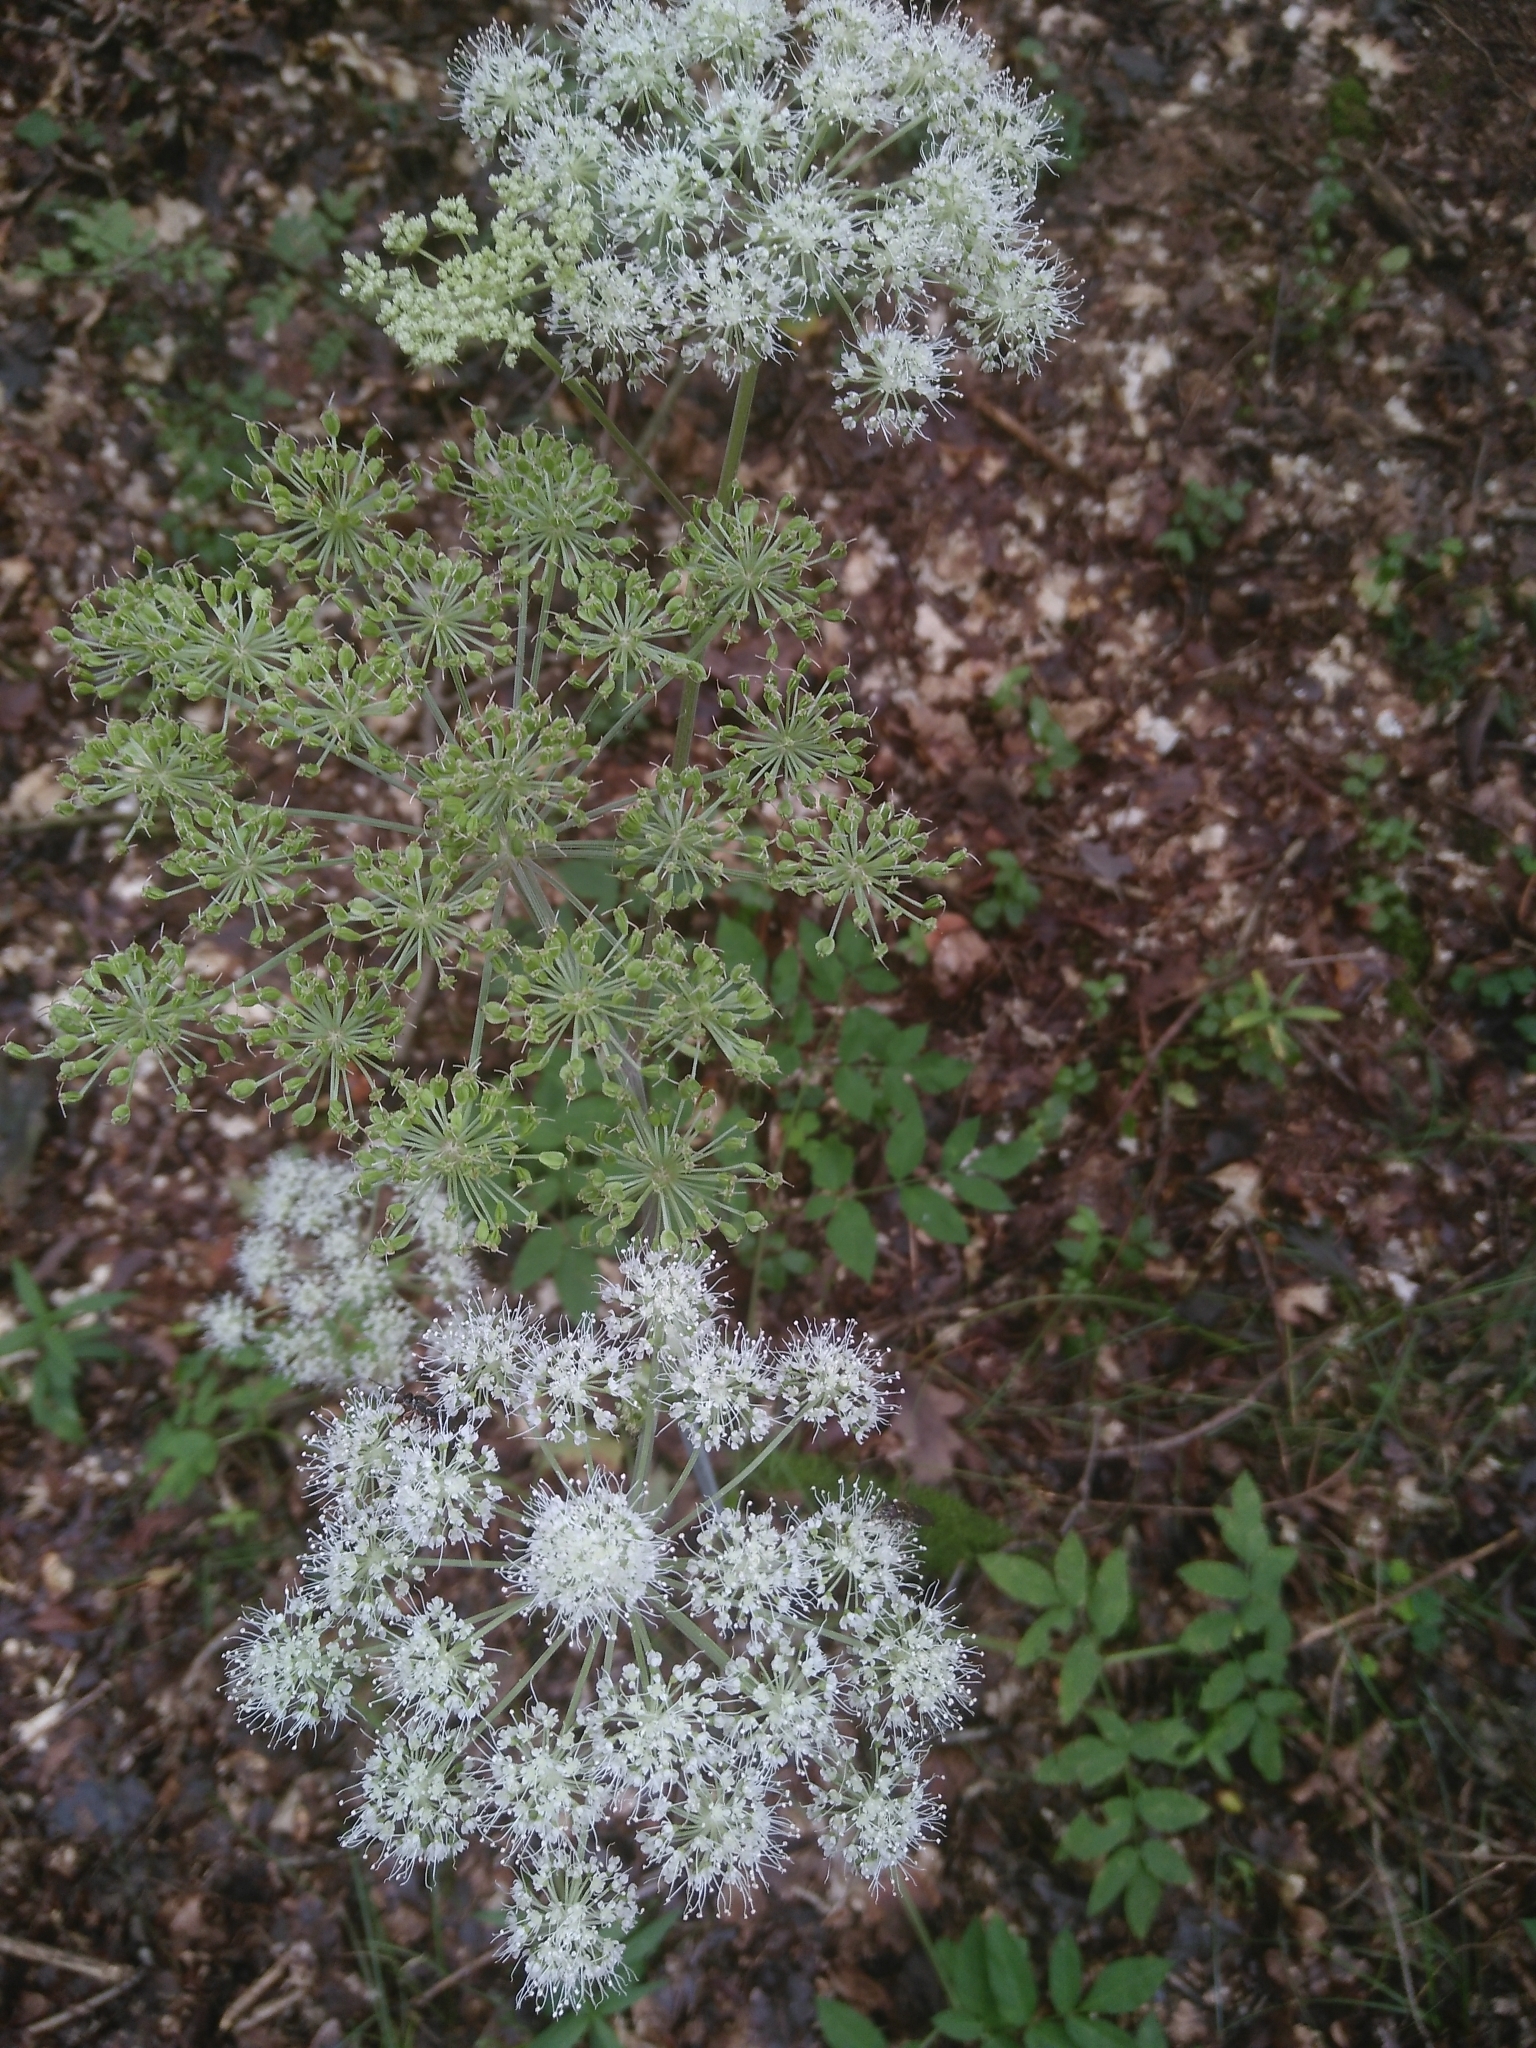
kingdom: Plantae
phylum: Tracheophyta
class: Magnoliopsida
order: Apiales
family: Apiaceae
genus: Angelica
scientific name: Angelica sylvestris
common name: Wild angelica
